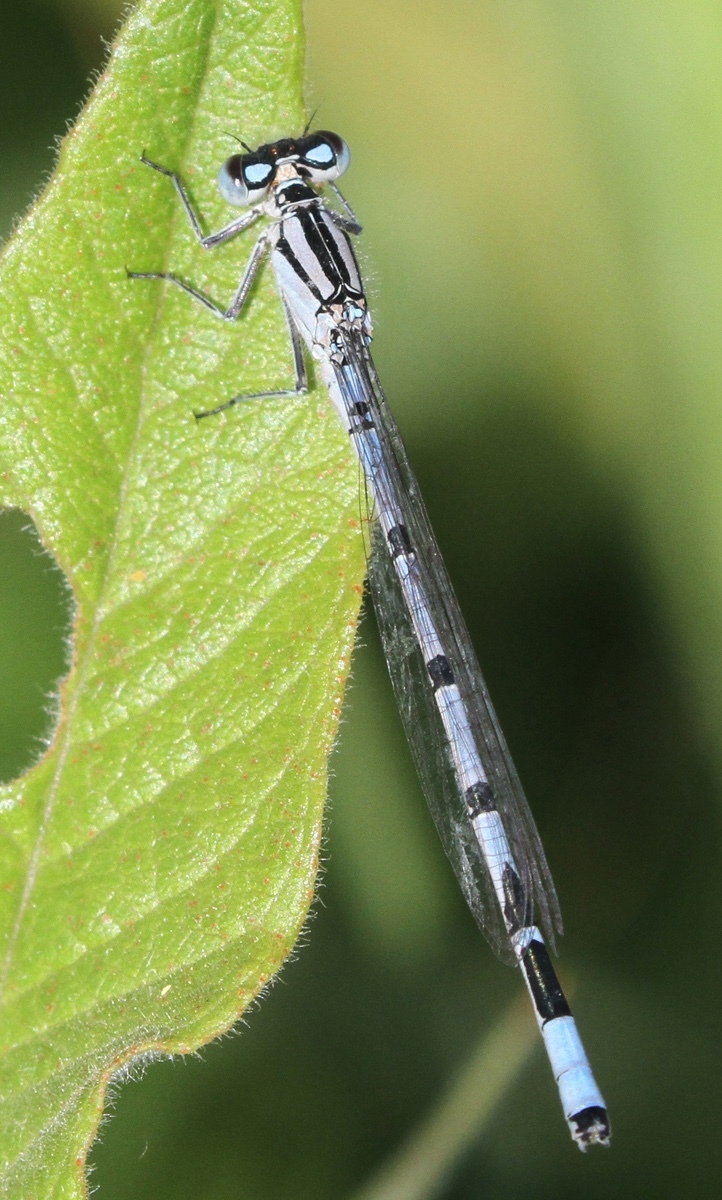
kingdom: Animalia
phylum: Arthropoda
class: Insecta
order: Odonata
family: Coenagrionidae
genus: Enallagma
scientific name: Enallagma cyathigerum
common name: Common blue damselfly
